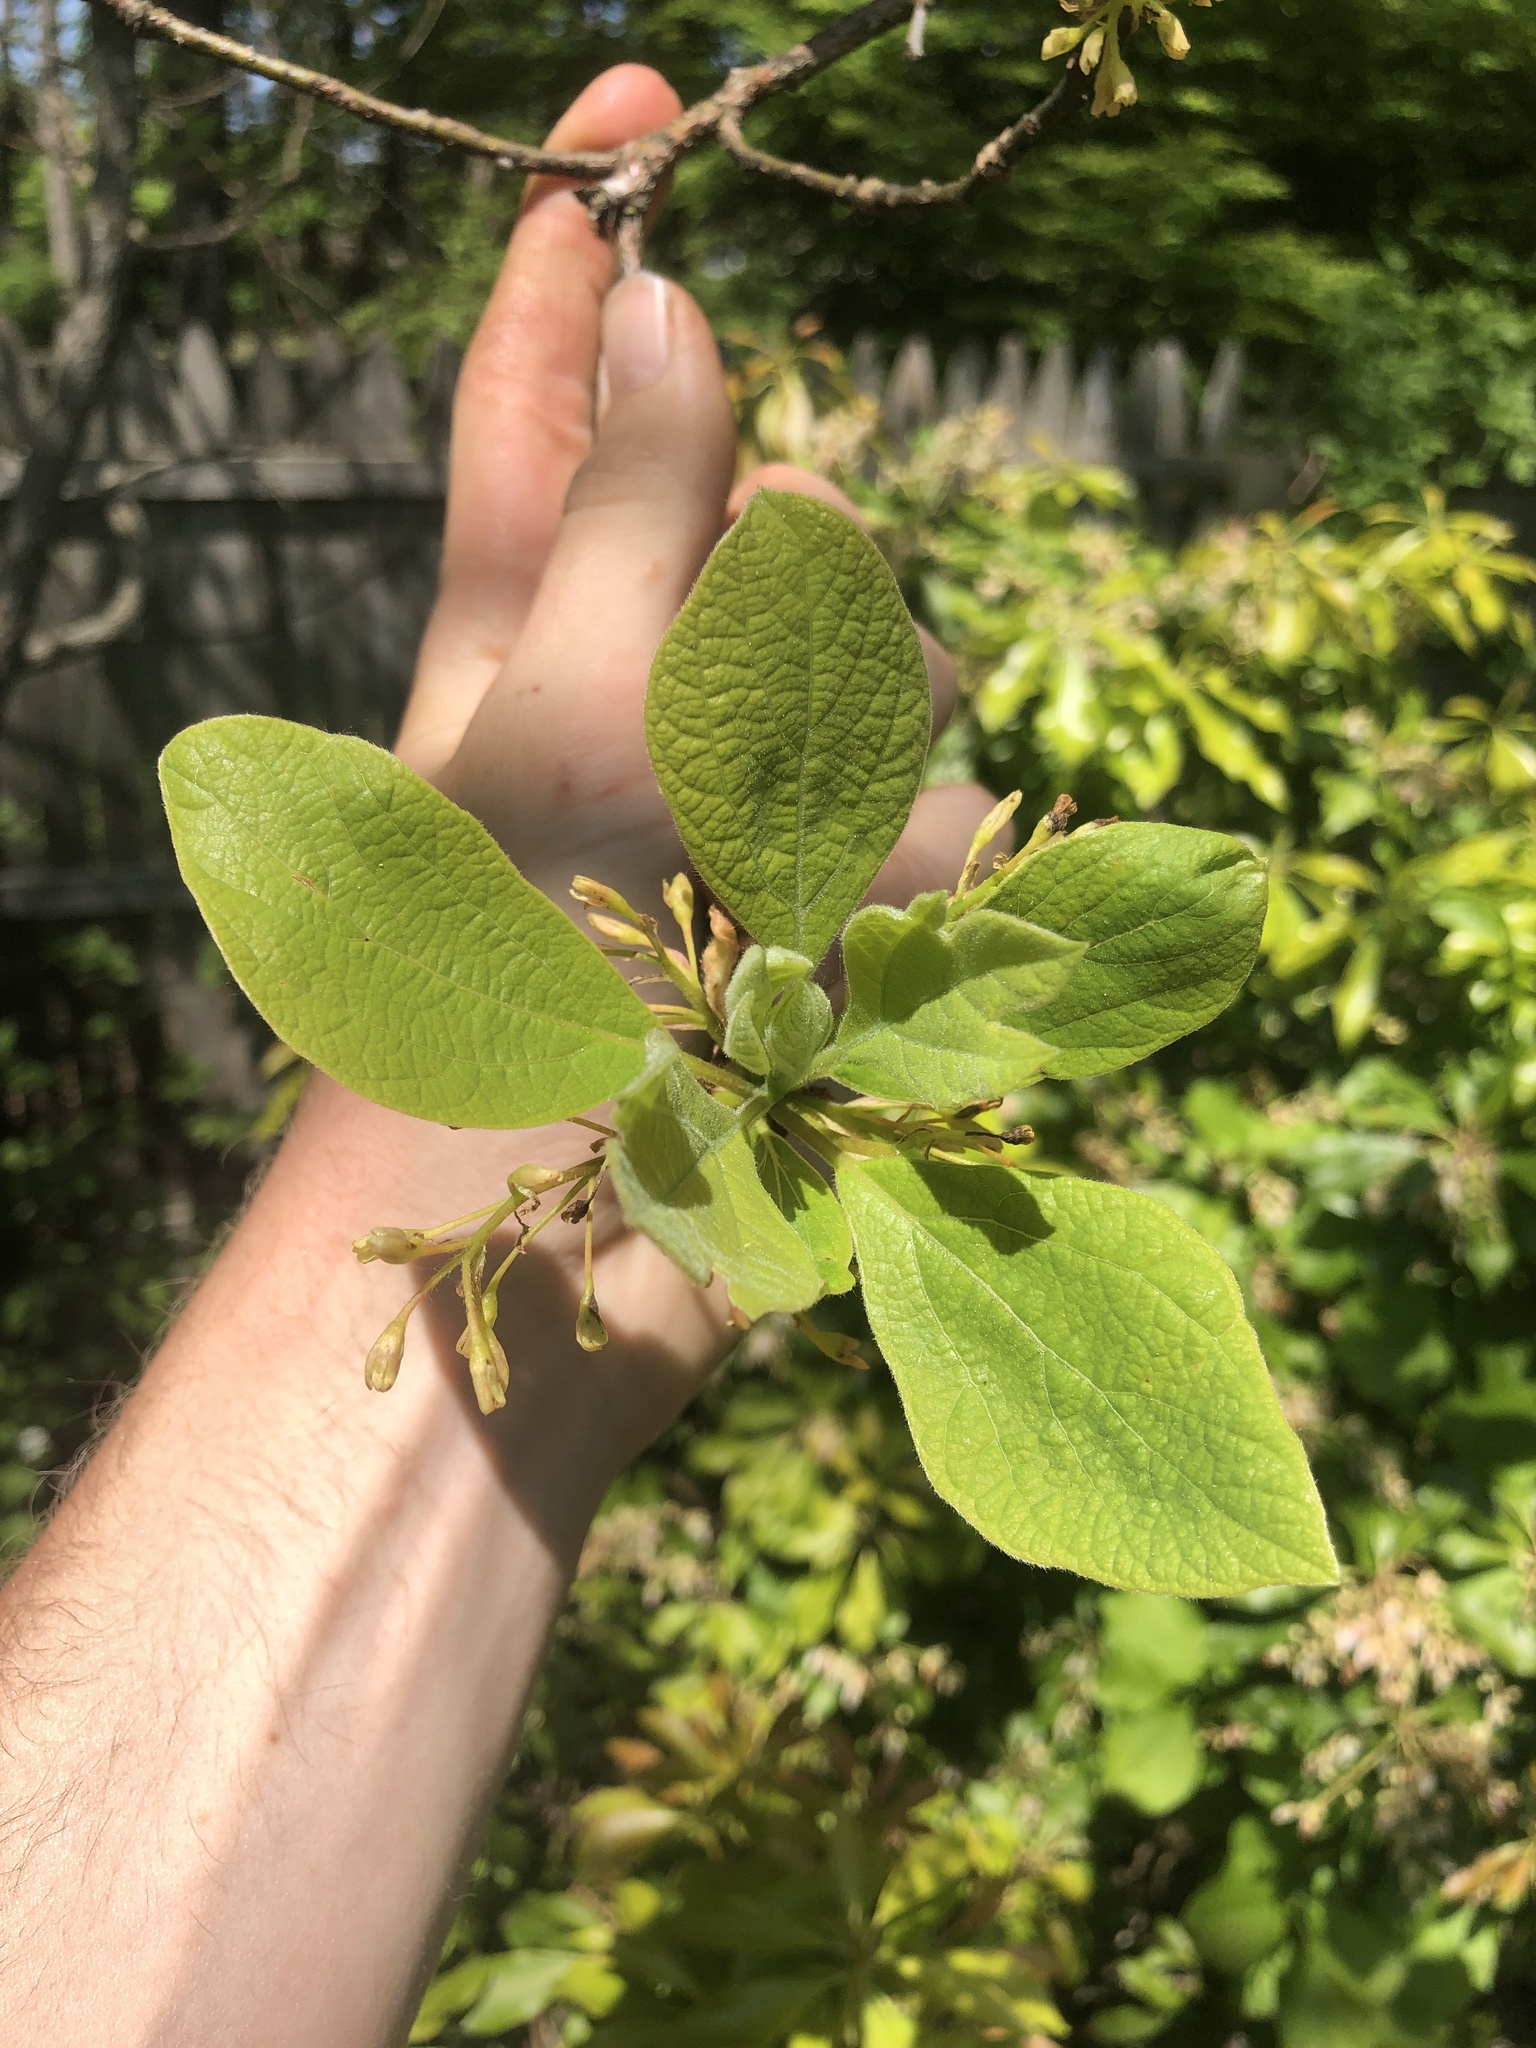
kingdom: Plantae
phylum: Tracheophyta
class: Magnoliopsida
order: Laurales
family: Lauraceae
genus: Sassafras
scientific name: Sassafras albidum
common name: Sassafras
